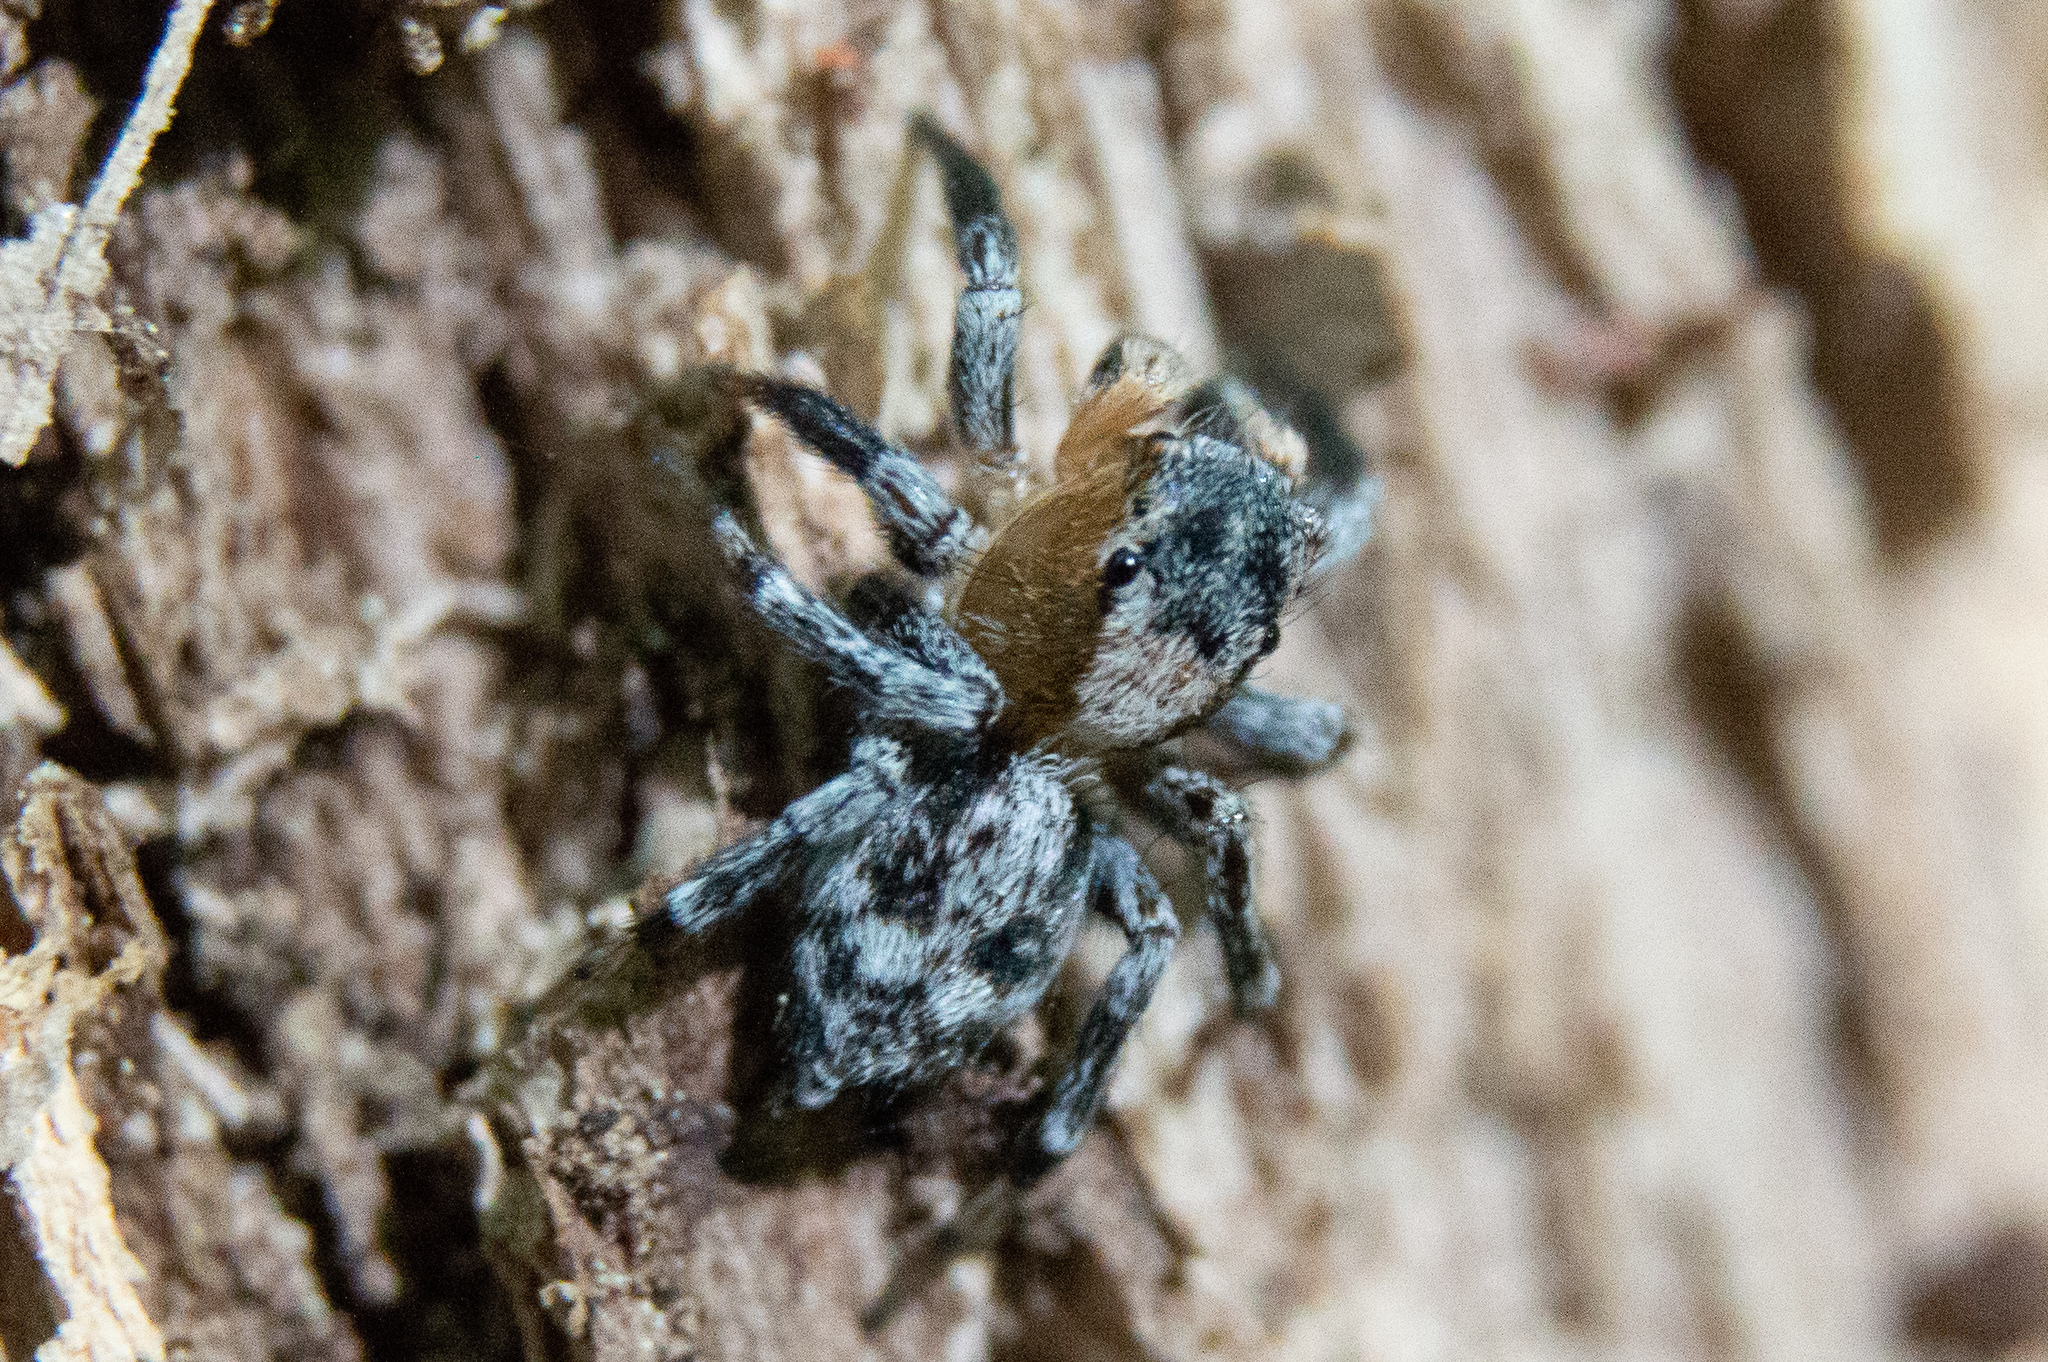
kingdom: Animalia
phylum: Arthropoda
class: Arachnida
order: Araneae
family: Salticidae
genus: Naphrys
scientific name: Naphrys pulex
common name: Flea jumping spider
